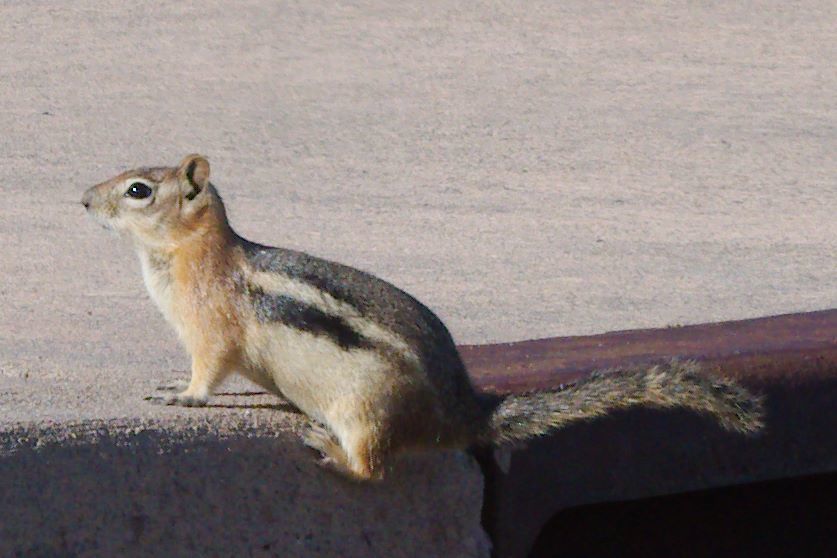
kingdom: Animalia
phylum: Chordata
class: Mammalia
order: Rodentia
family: Sciuridae
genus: Callospermophilus
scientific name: Callospermophilus lateralis
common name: Golden-mantled ground squirrel
